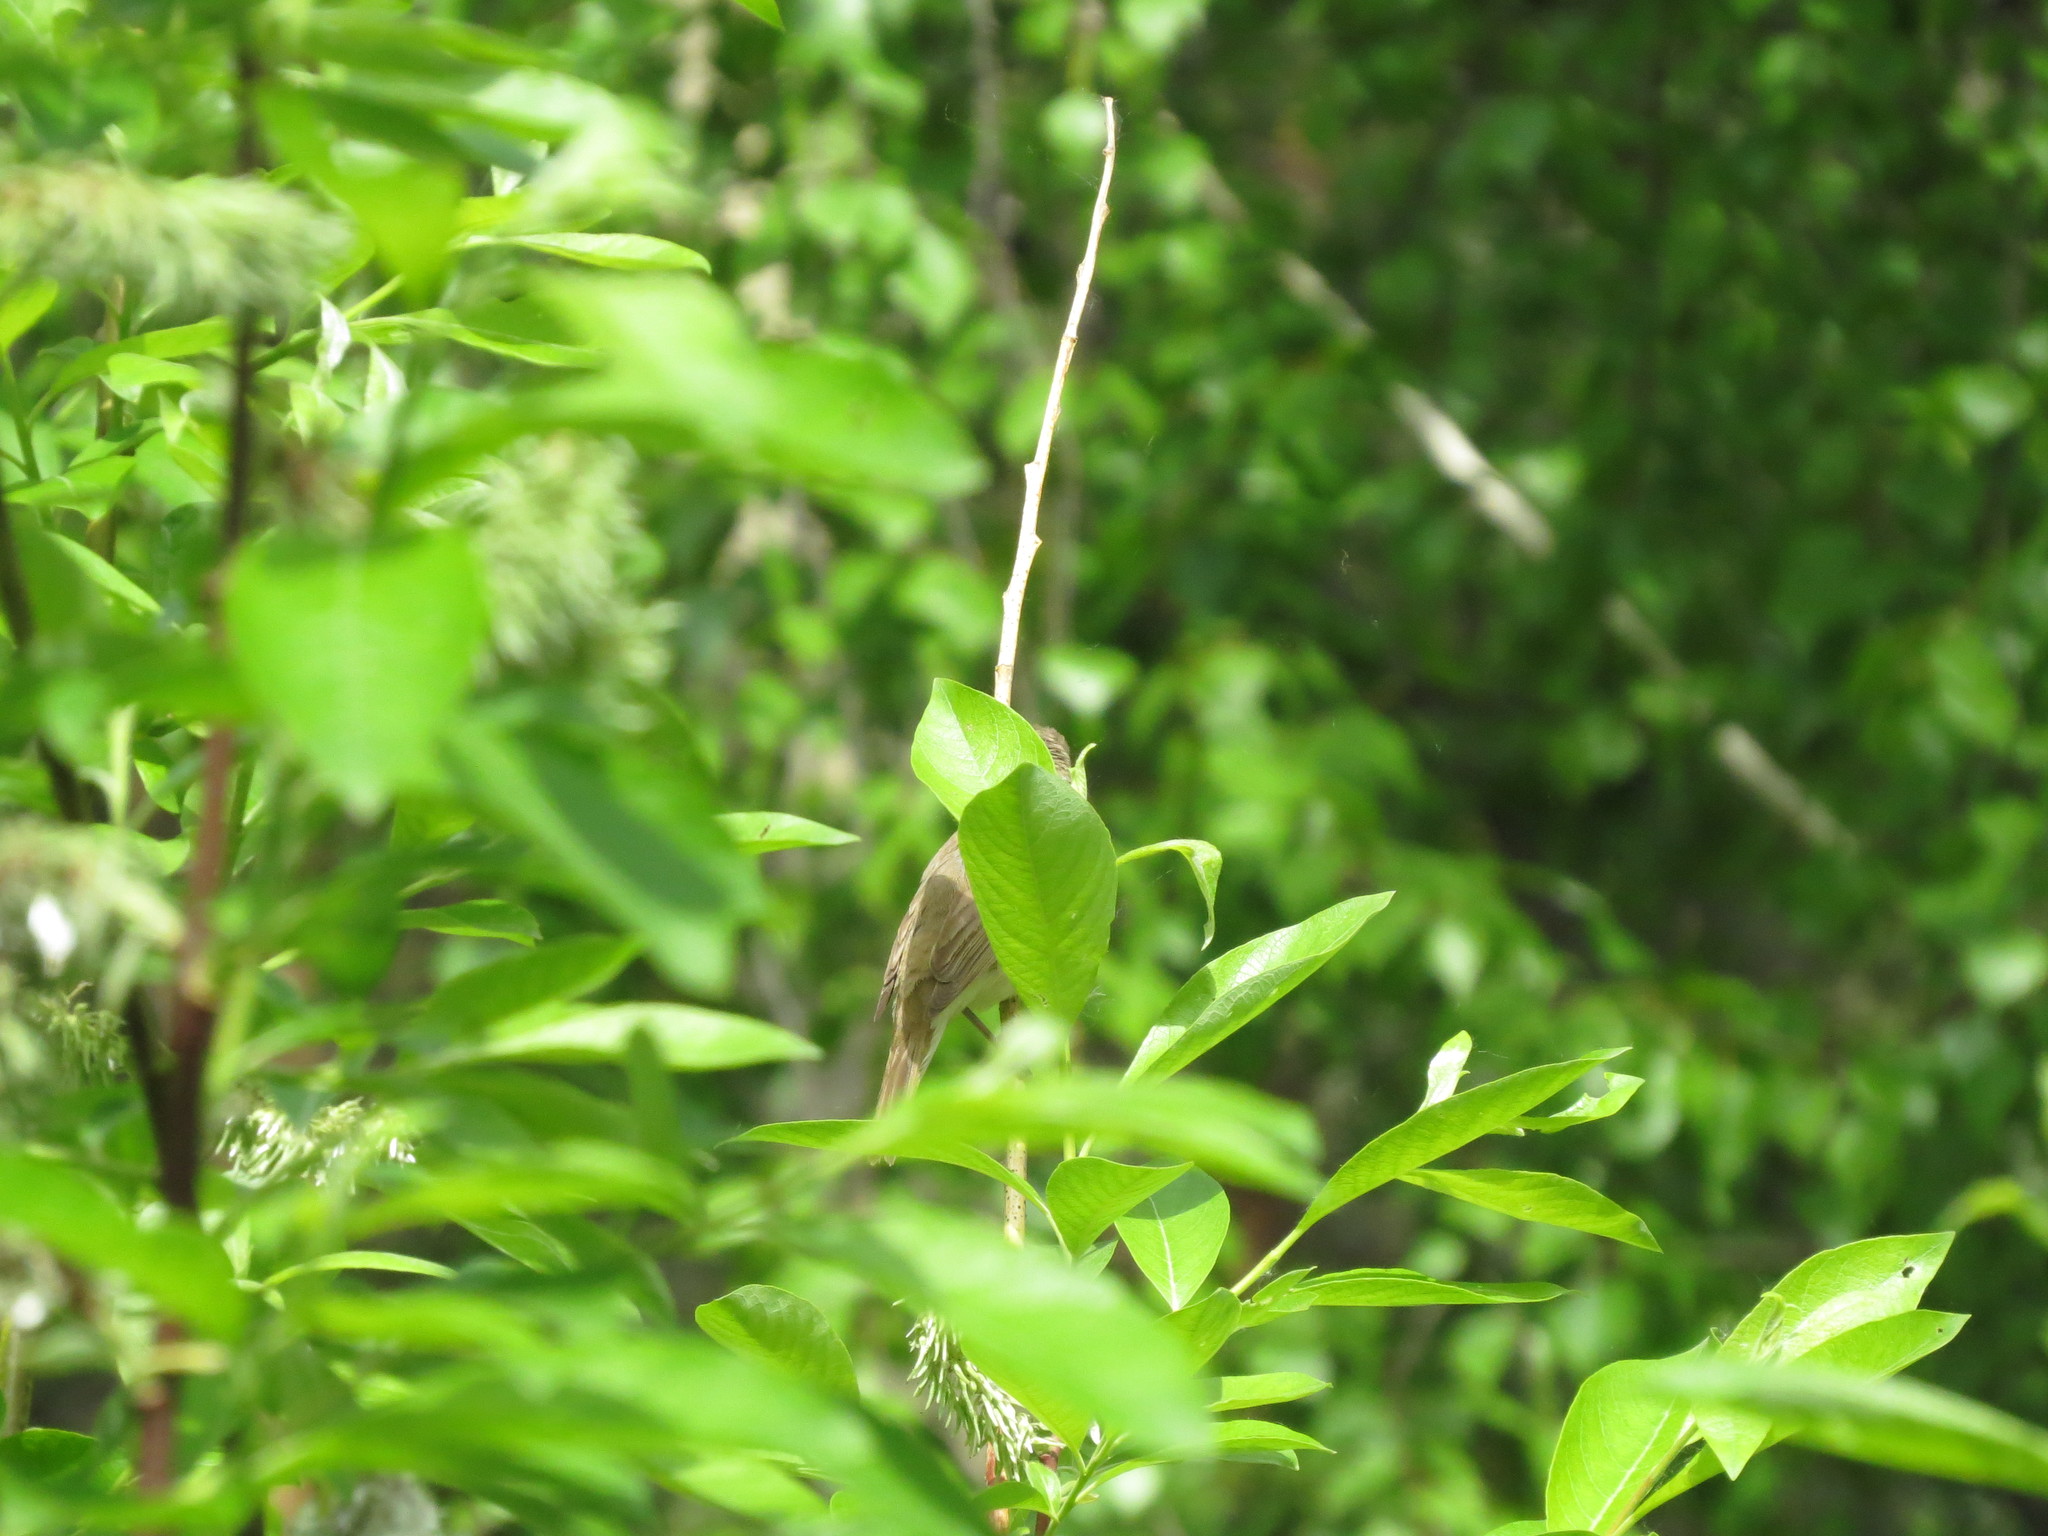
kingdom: Animalia
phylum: Chordata
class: Aves
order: Passeriformes
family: Acrocephalidae
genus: Acrocephalus
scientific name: Acrocephalus dumetorum
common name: Blyth's reed warbler
